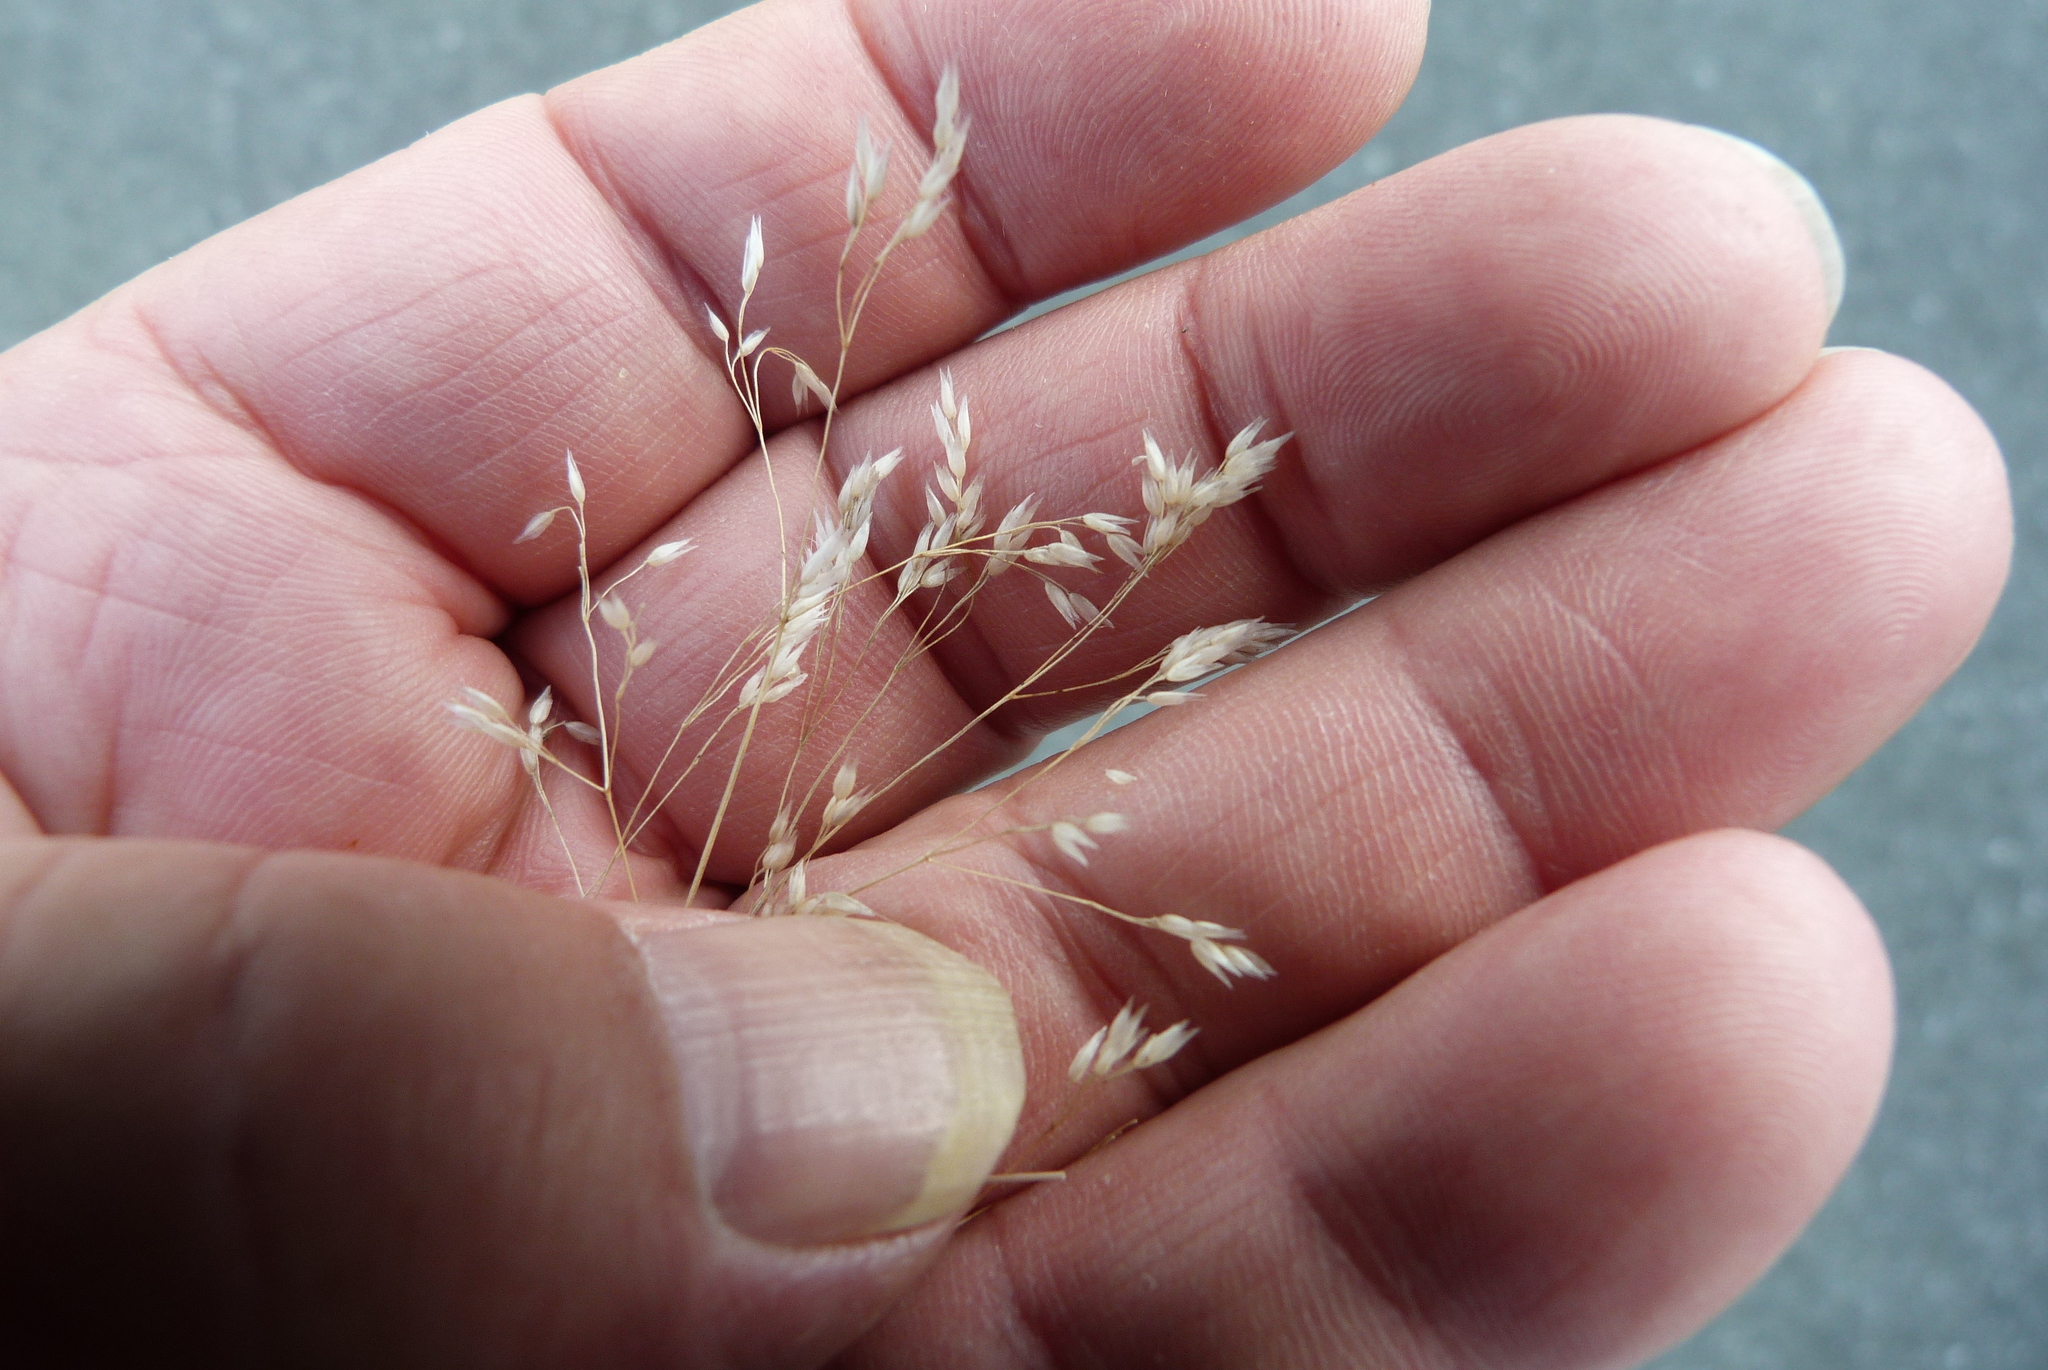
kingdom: Plantae
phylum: Tracheophyta
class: Liliopsida
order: Poales
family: Poaceae
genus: Aira
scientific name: Aira caryophyllea
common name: Silver hairgrass
